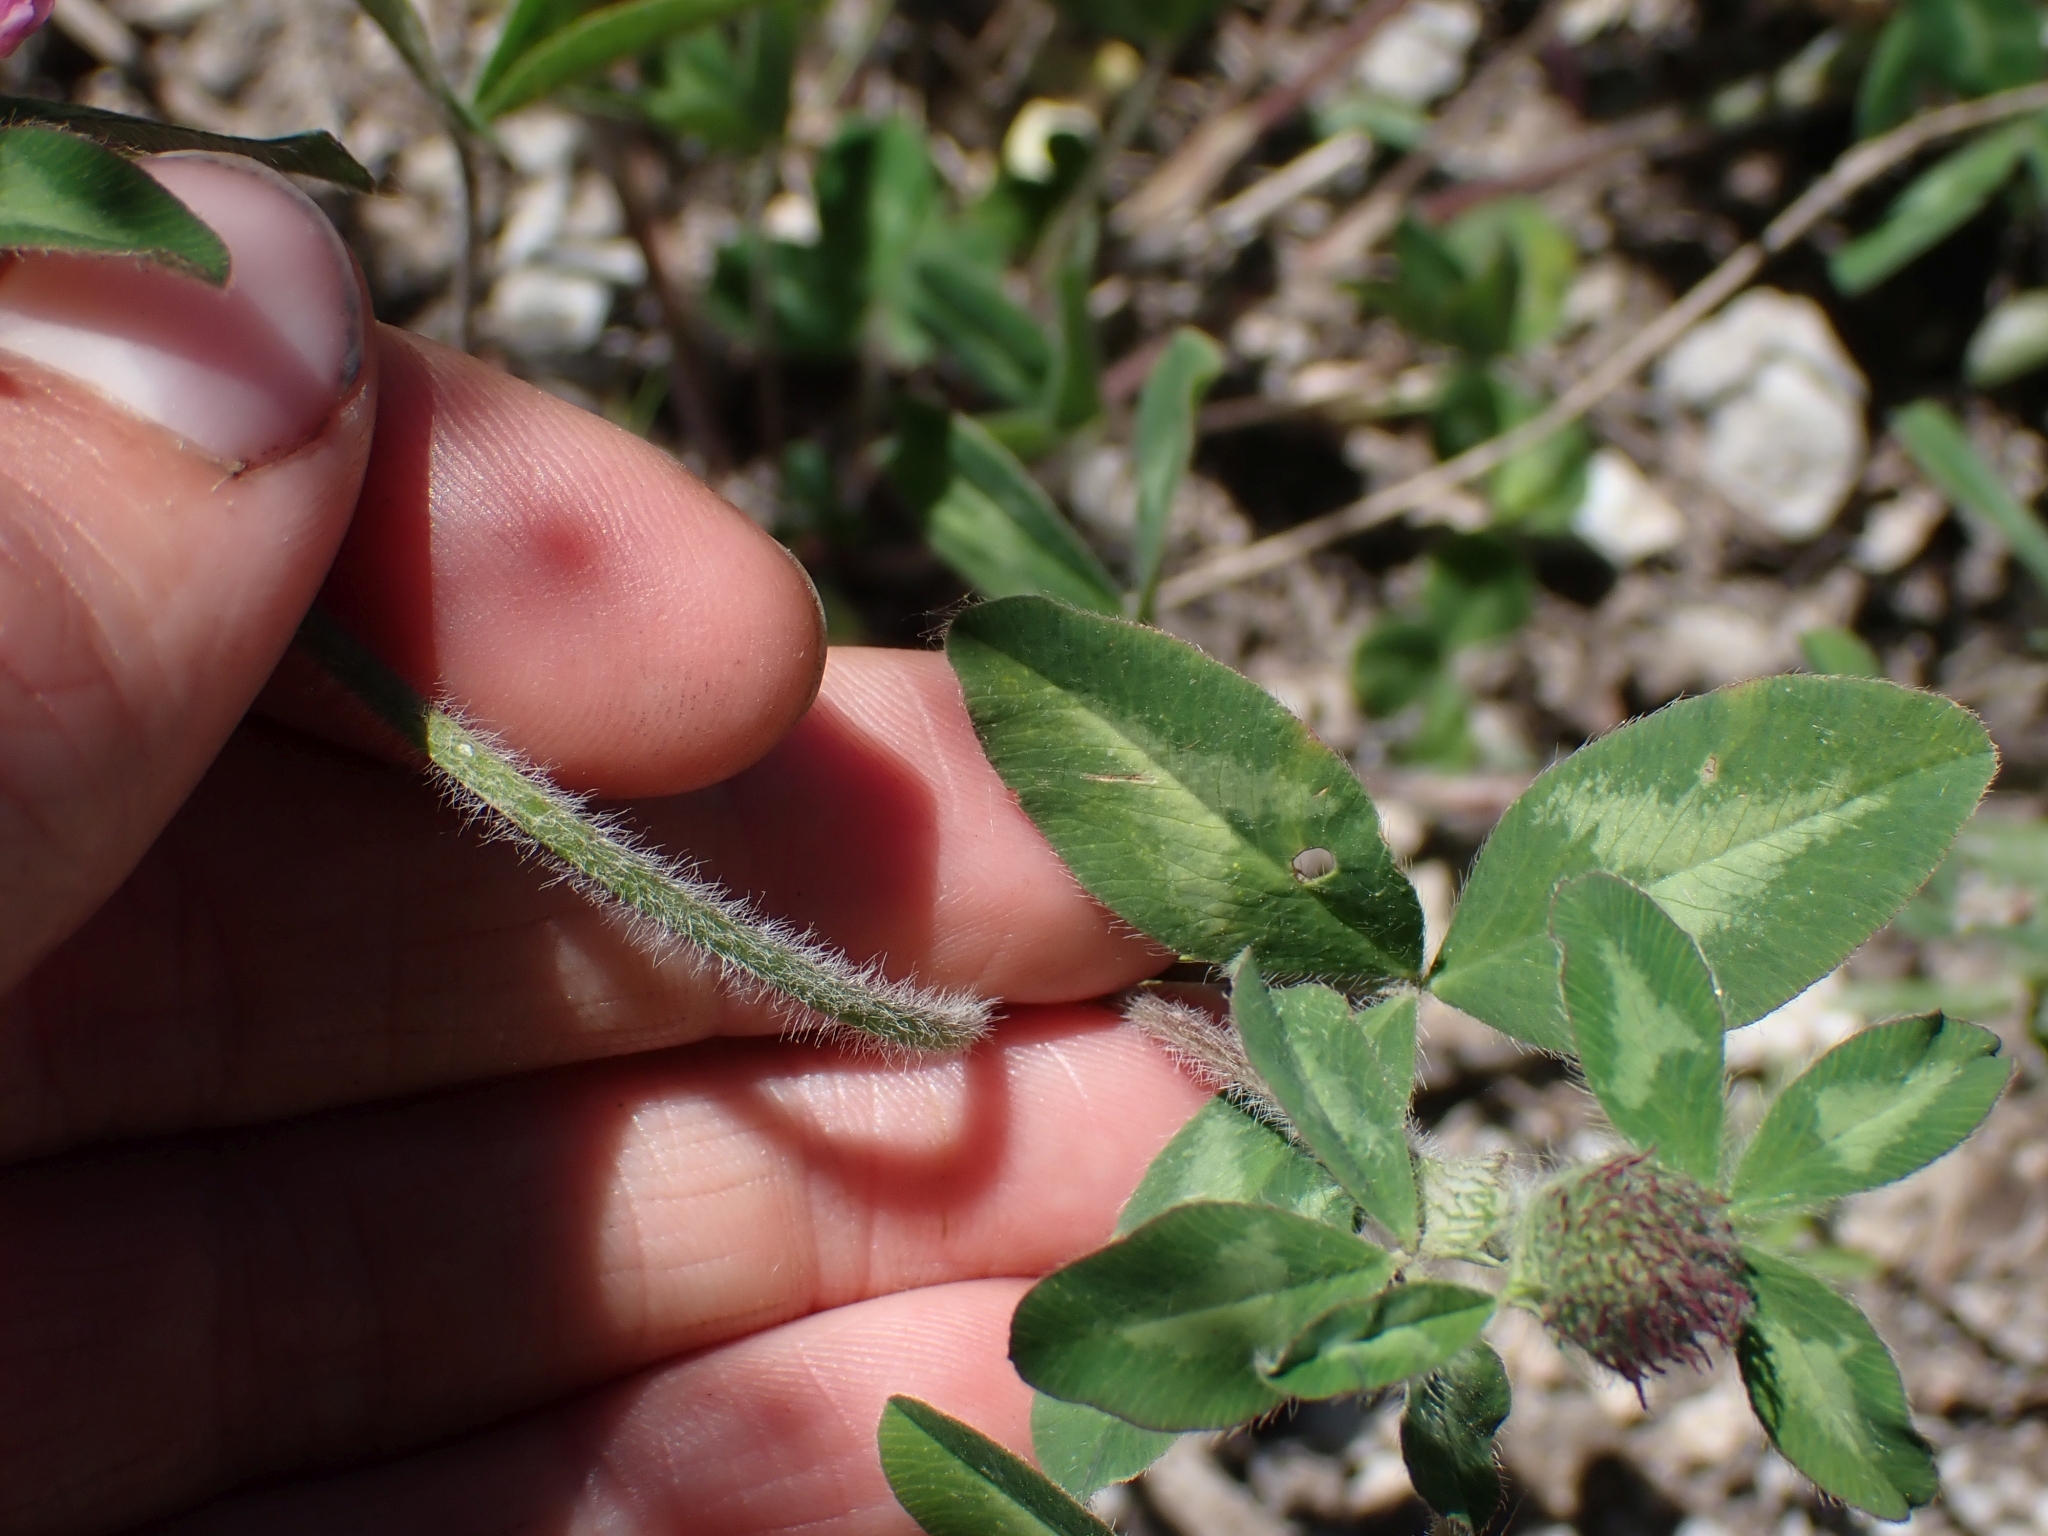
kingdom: Plantae
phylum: Tracheophyta
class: Magnoliopsida
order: Fabales
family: Fabaceae
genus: Trifolium
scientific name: Trifolium pratense
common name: Red clover
